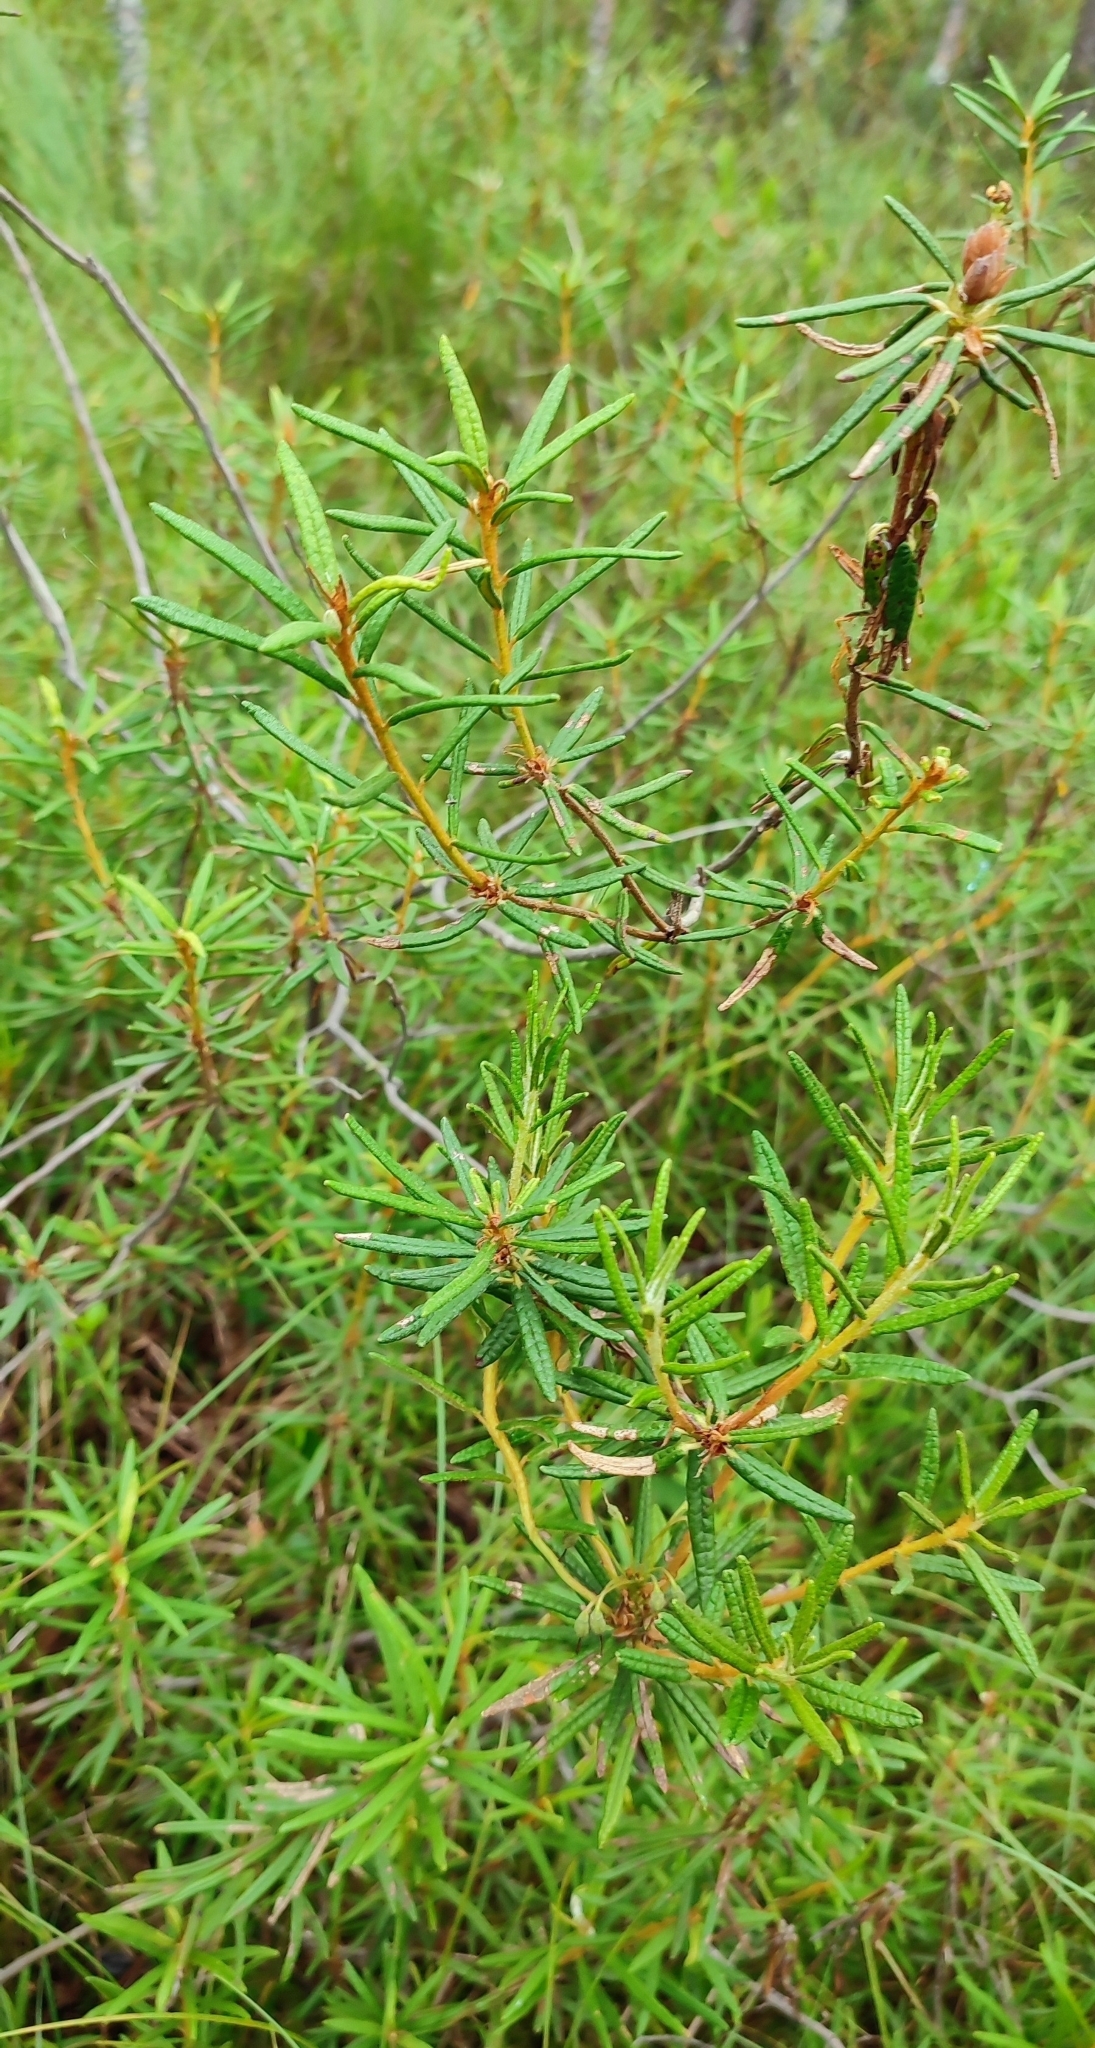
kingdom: Plantae
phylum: Tracheophyta
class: Magnoliopsida
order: Ericales
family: Ericaceae
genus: Rhododendron
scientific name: Rhododendron tomentosum
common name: Marsh labrador tea
